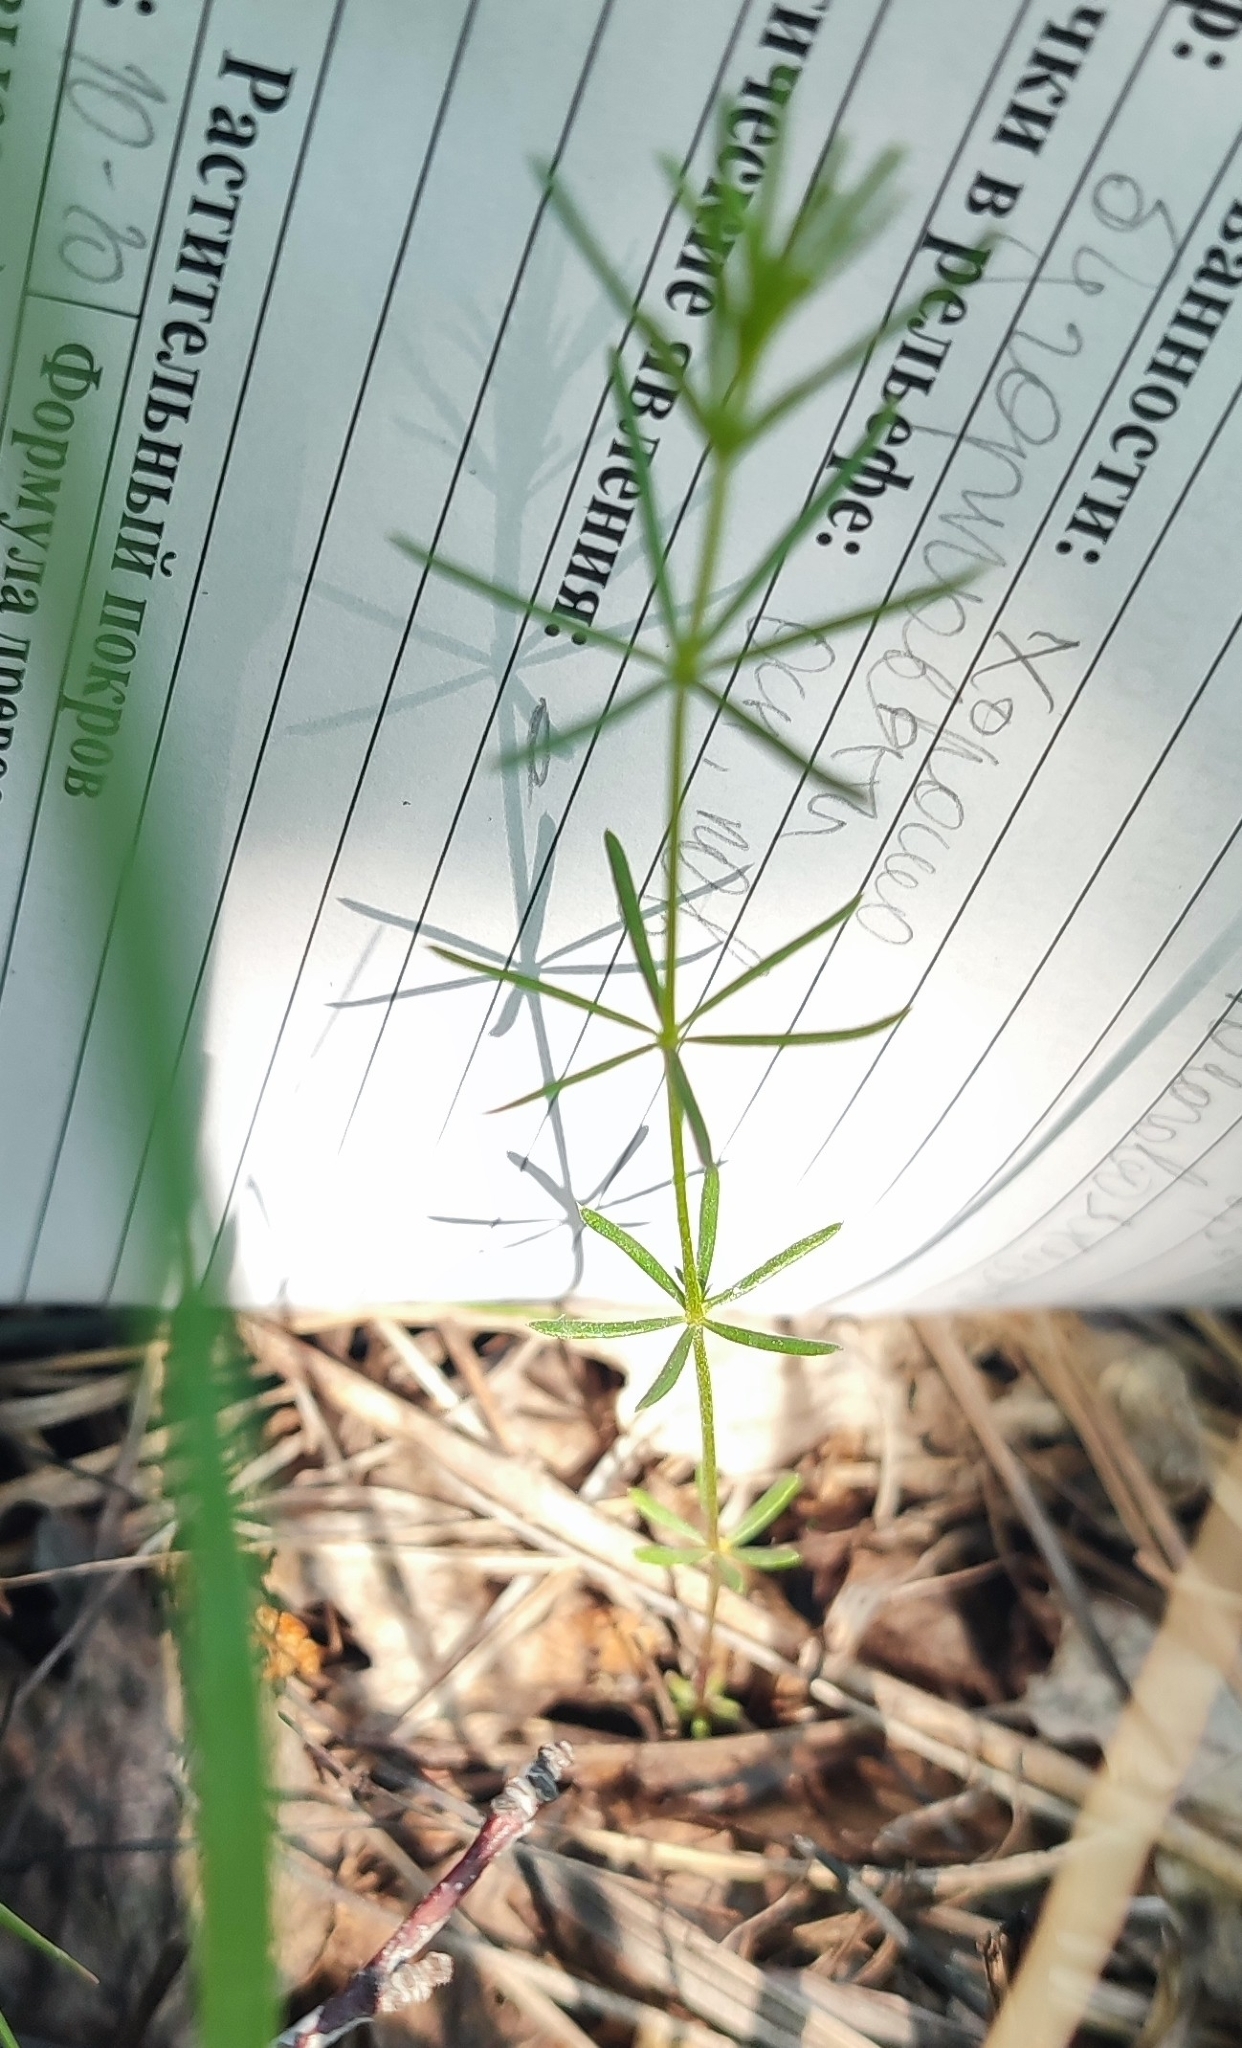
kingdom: Plantae
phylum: Tracheophyta
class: Magnoliopsida
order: Gentianales
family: Rubiaceae
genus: Galium
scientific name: Galium verum
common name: Lady's bedstraw
